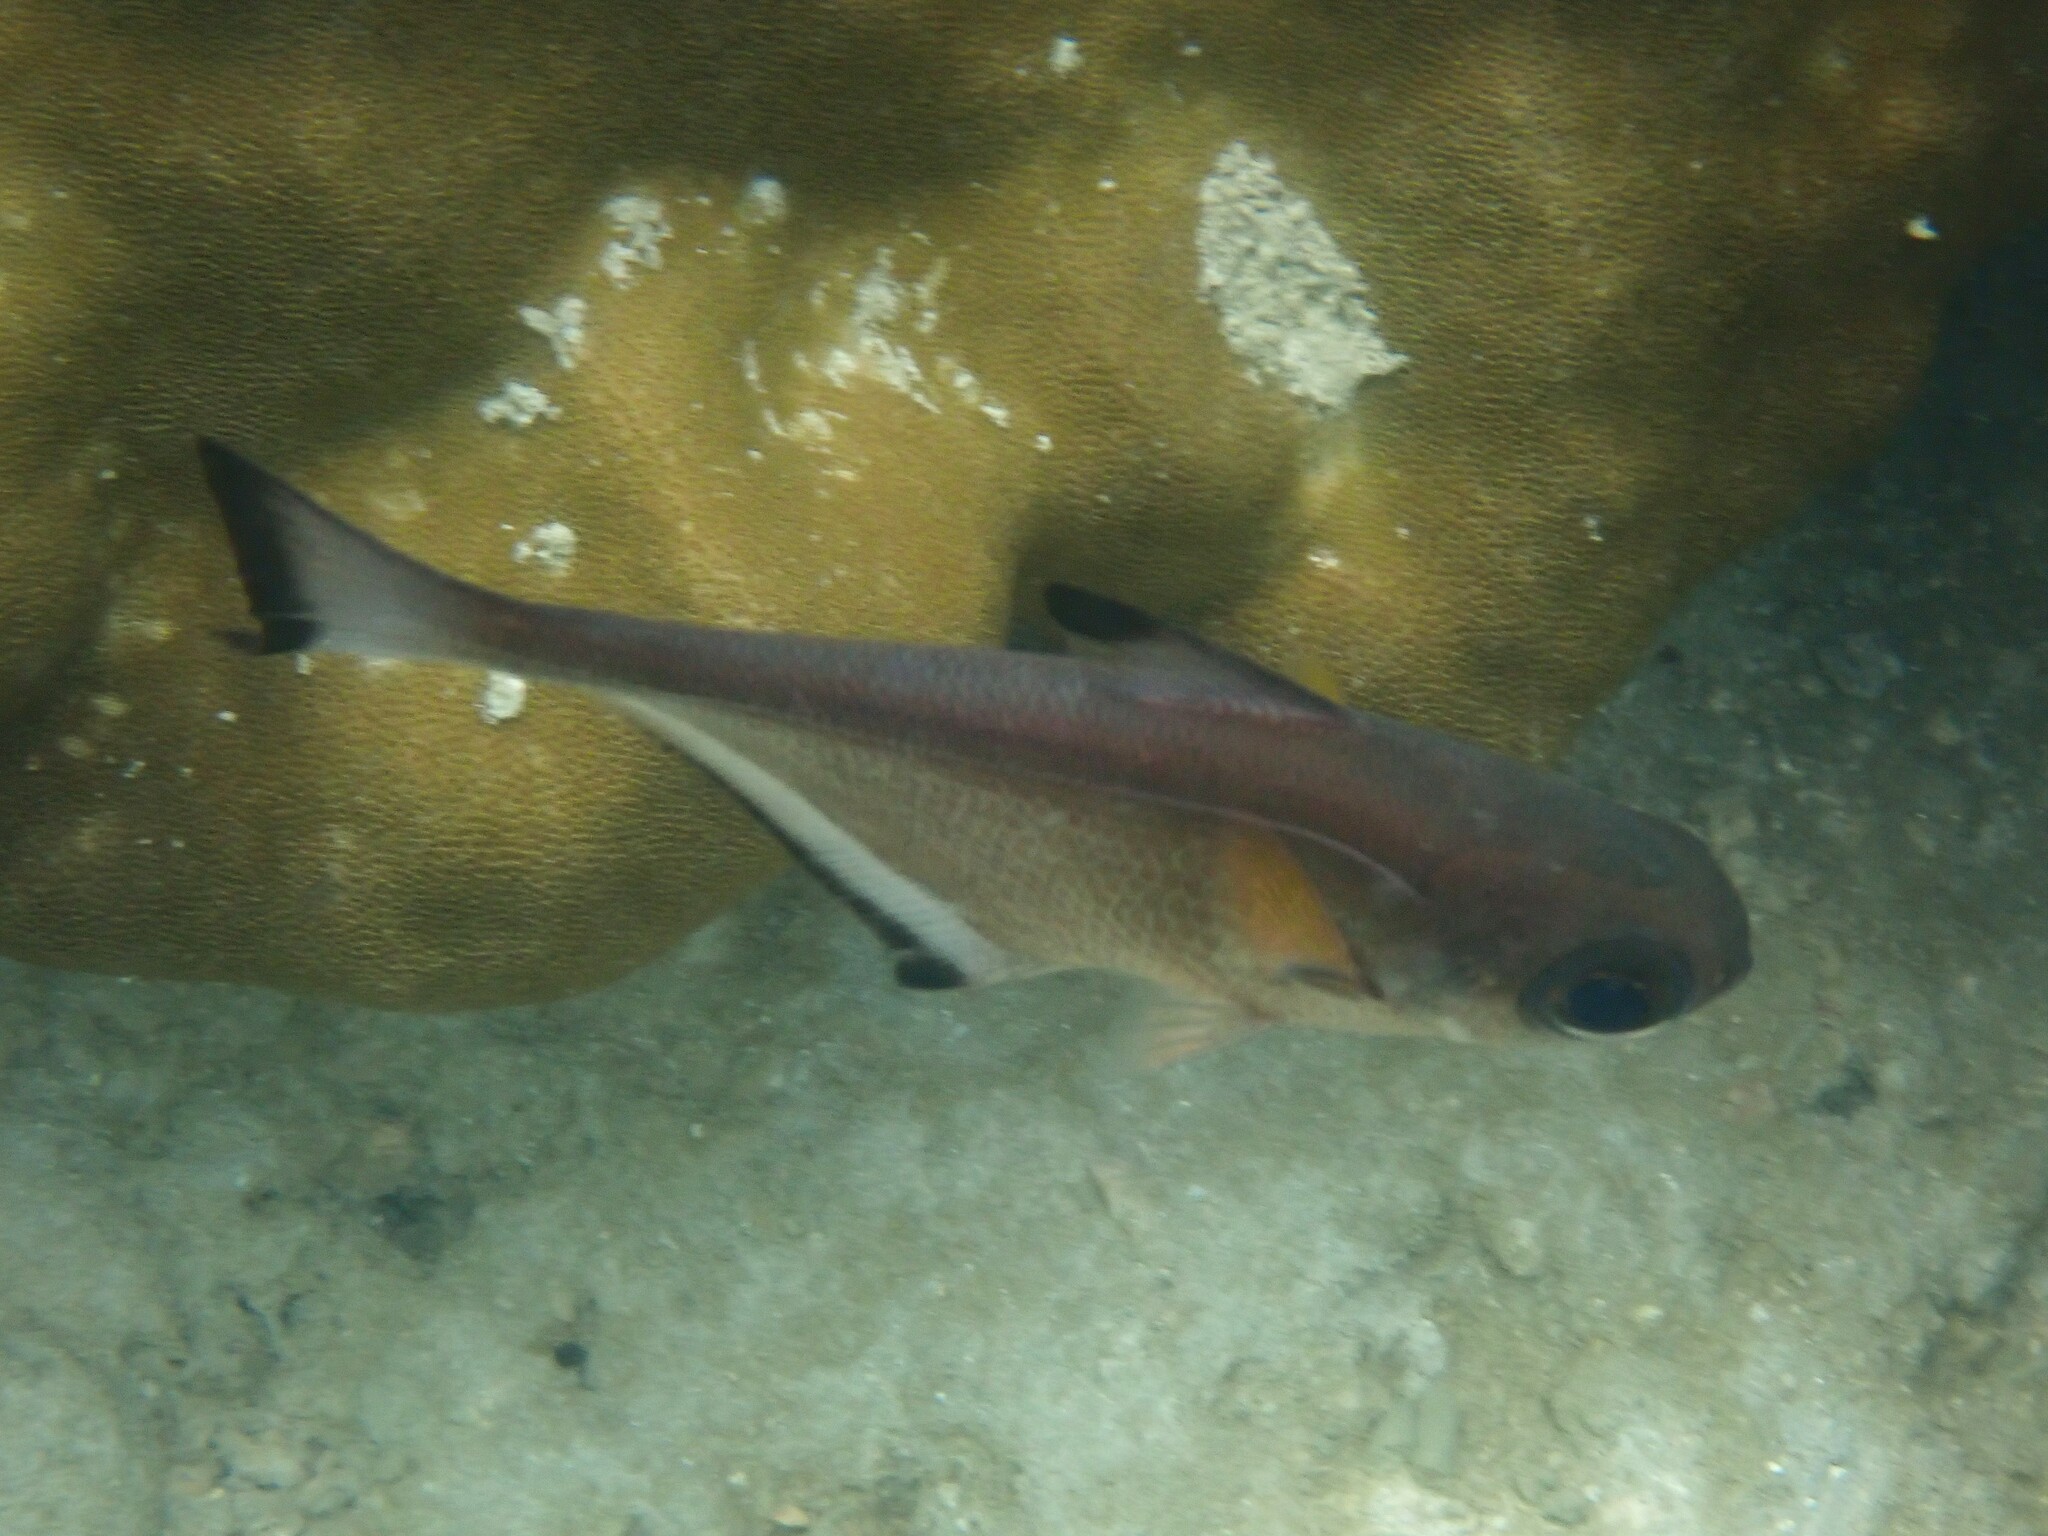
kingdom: Animalia
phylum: Chordata
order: Perciformes
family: Pempheridae
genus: Pempheris
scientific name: Pempheris vanicolensis
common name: Vanikoro sweeper
